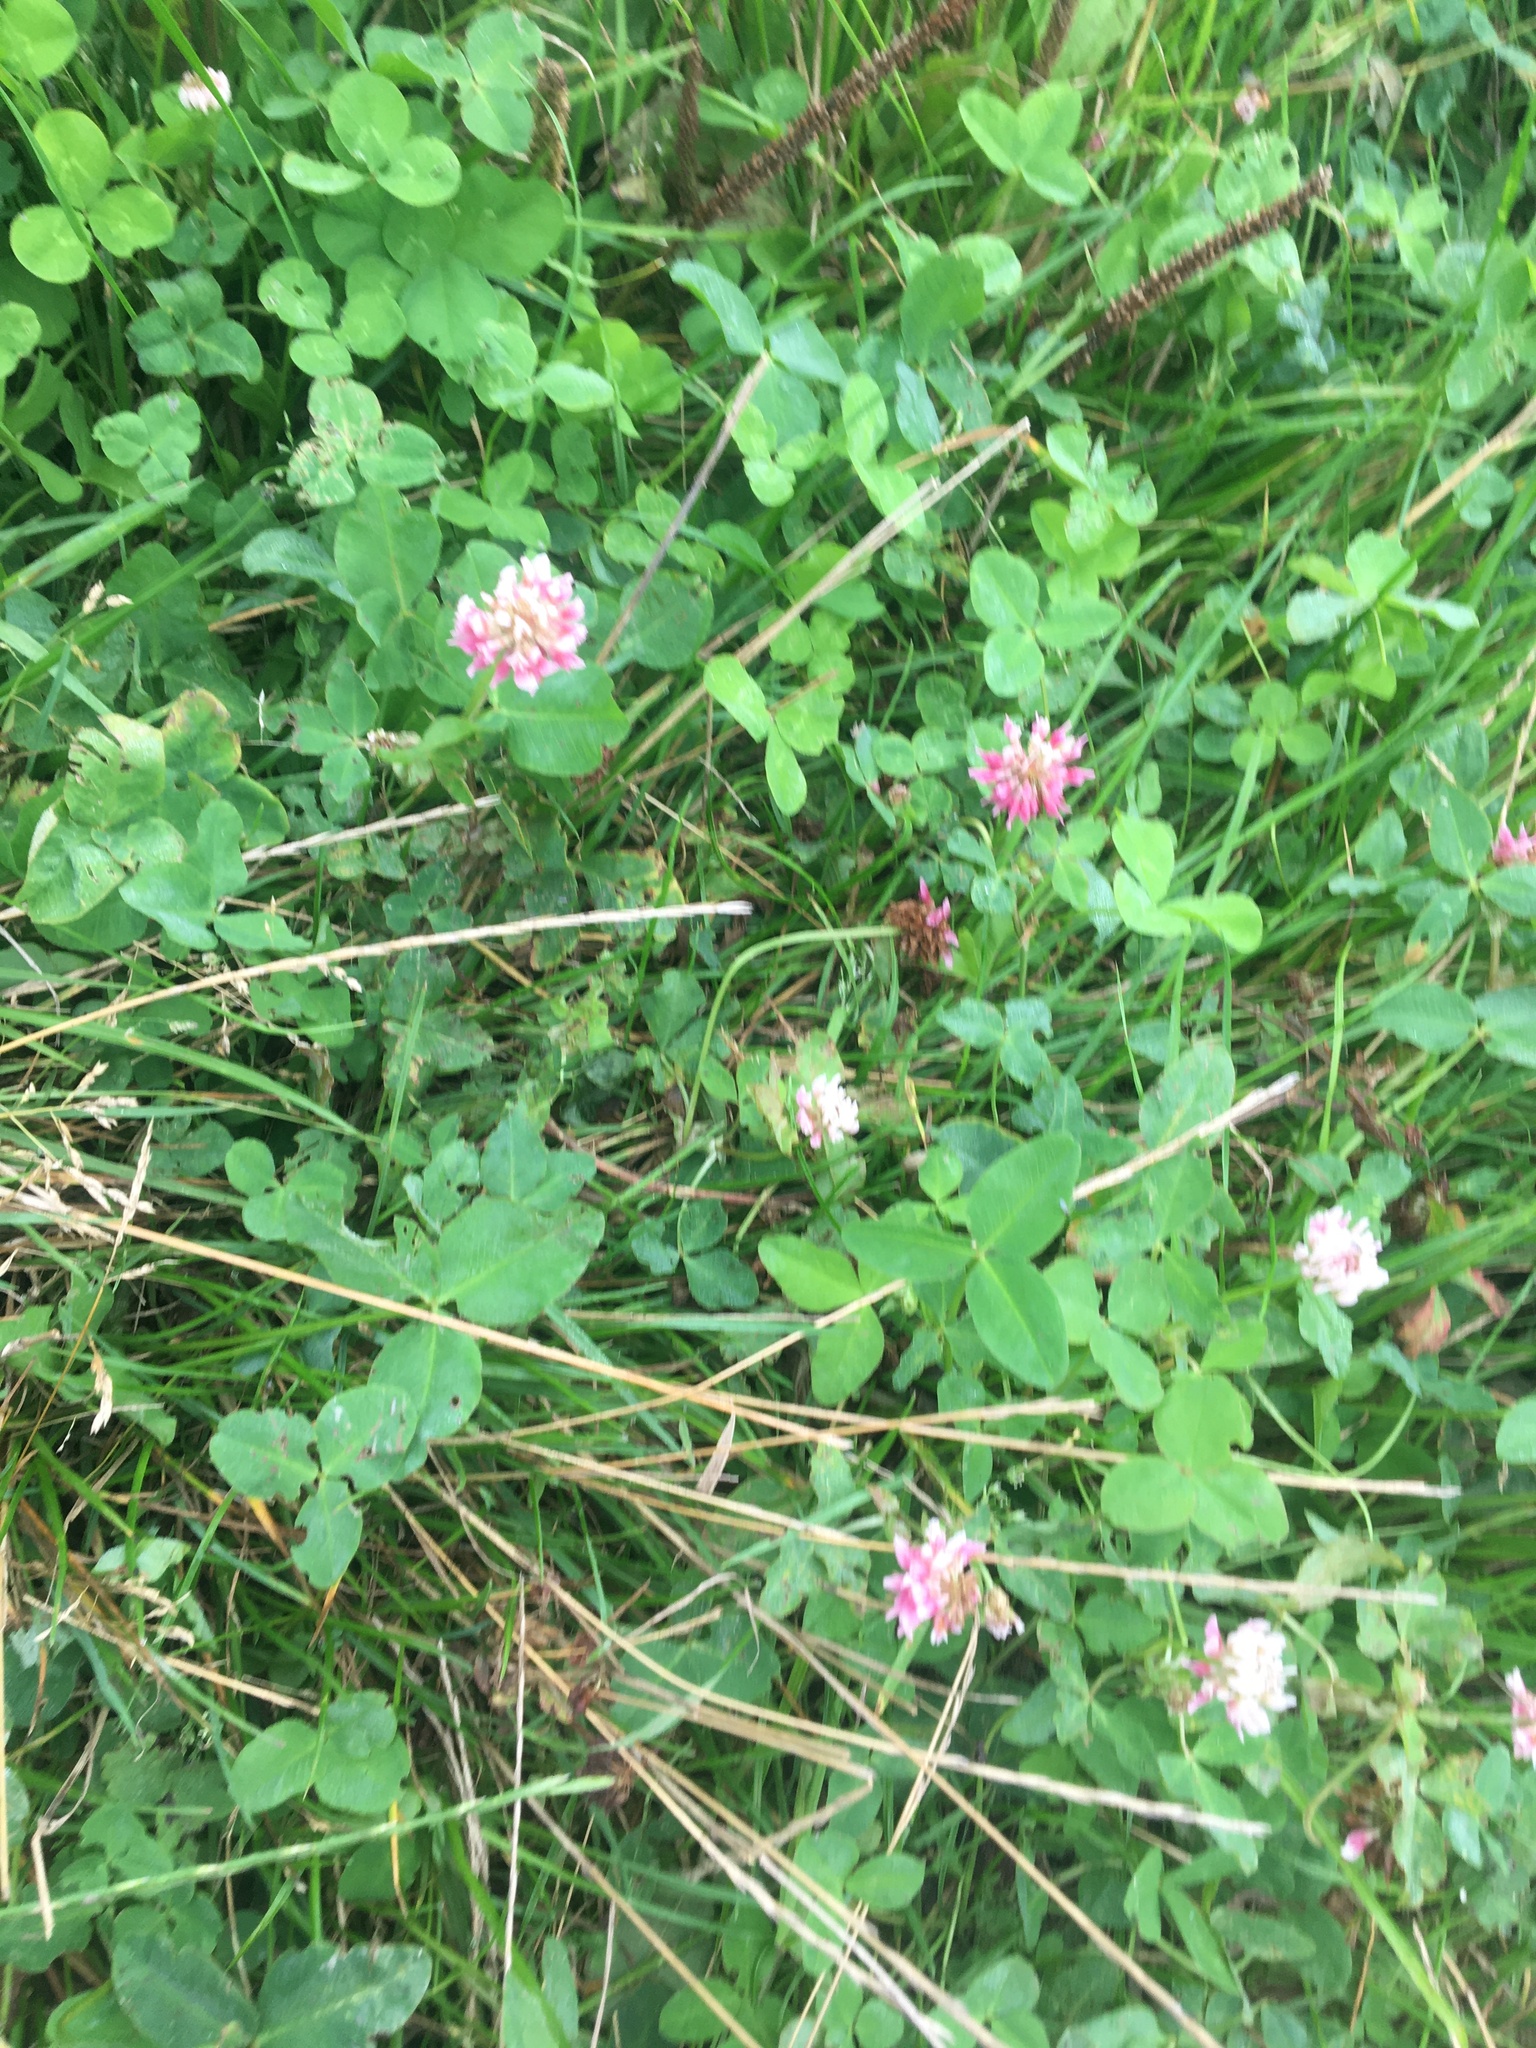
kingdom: Plantae
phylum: Tracheophyta
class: Magnoliopsida
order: Fabales
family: Fabaceae
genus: Trifolium
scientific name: Trifolium hybridum
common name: Alsike clover
